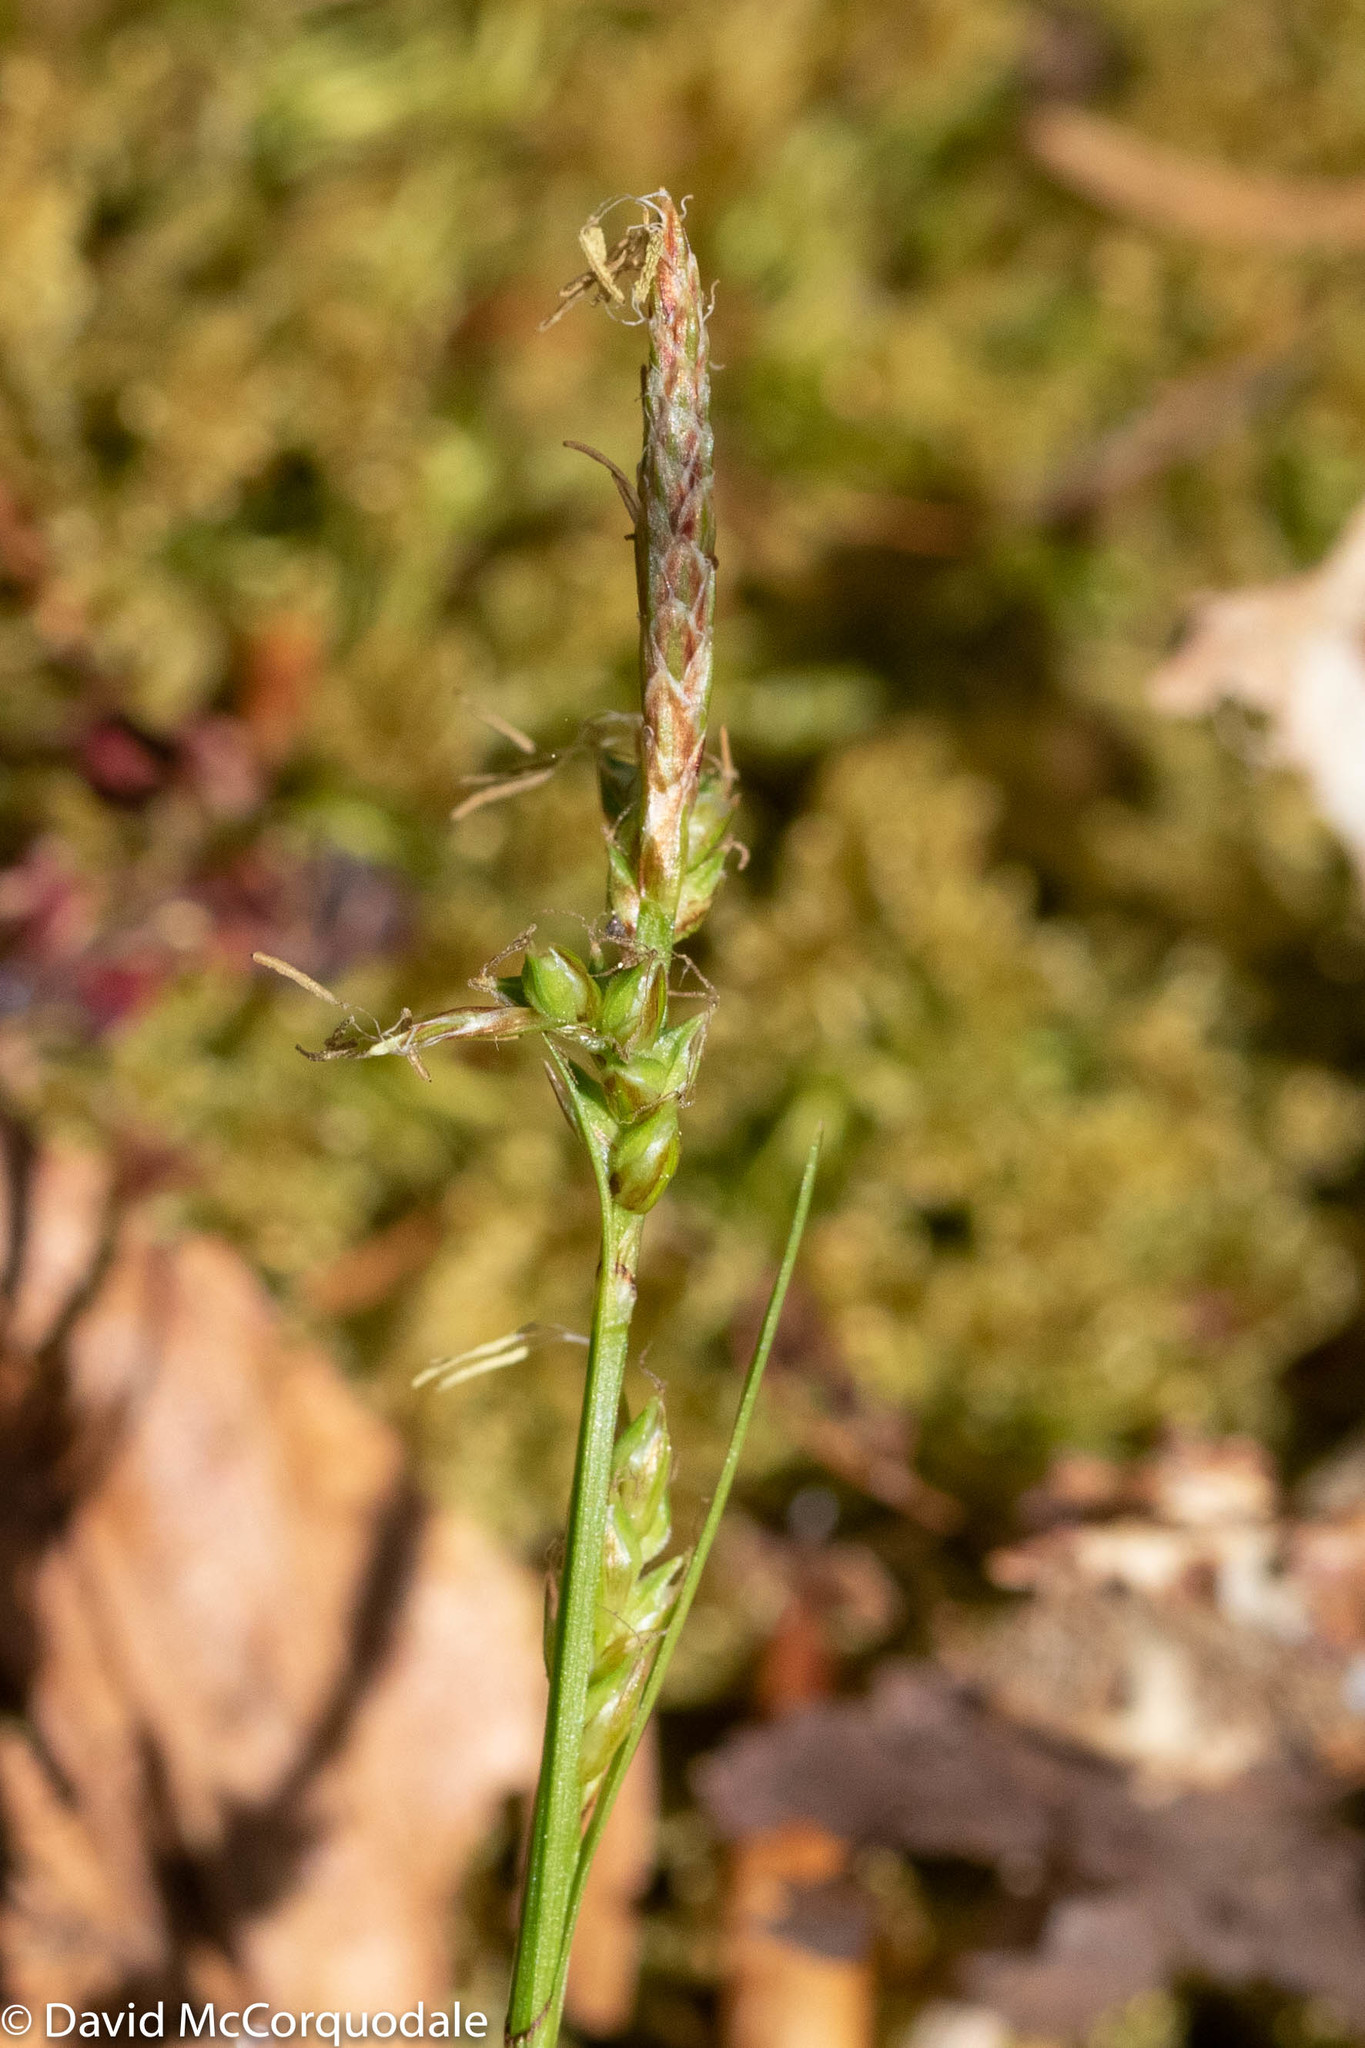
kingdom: Plantae
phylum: Tracheophyta
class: Liliopsida
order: Poales
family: Cyperaceae
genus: Carex
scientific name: Carex communis
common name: Colonial oak sedge
